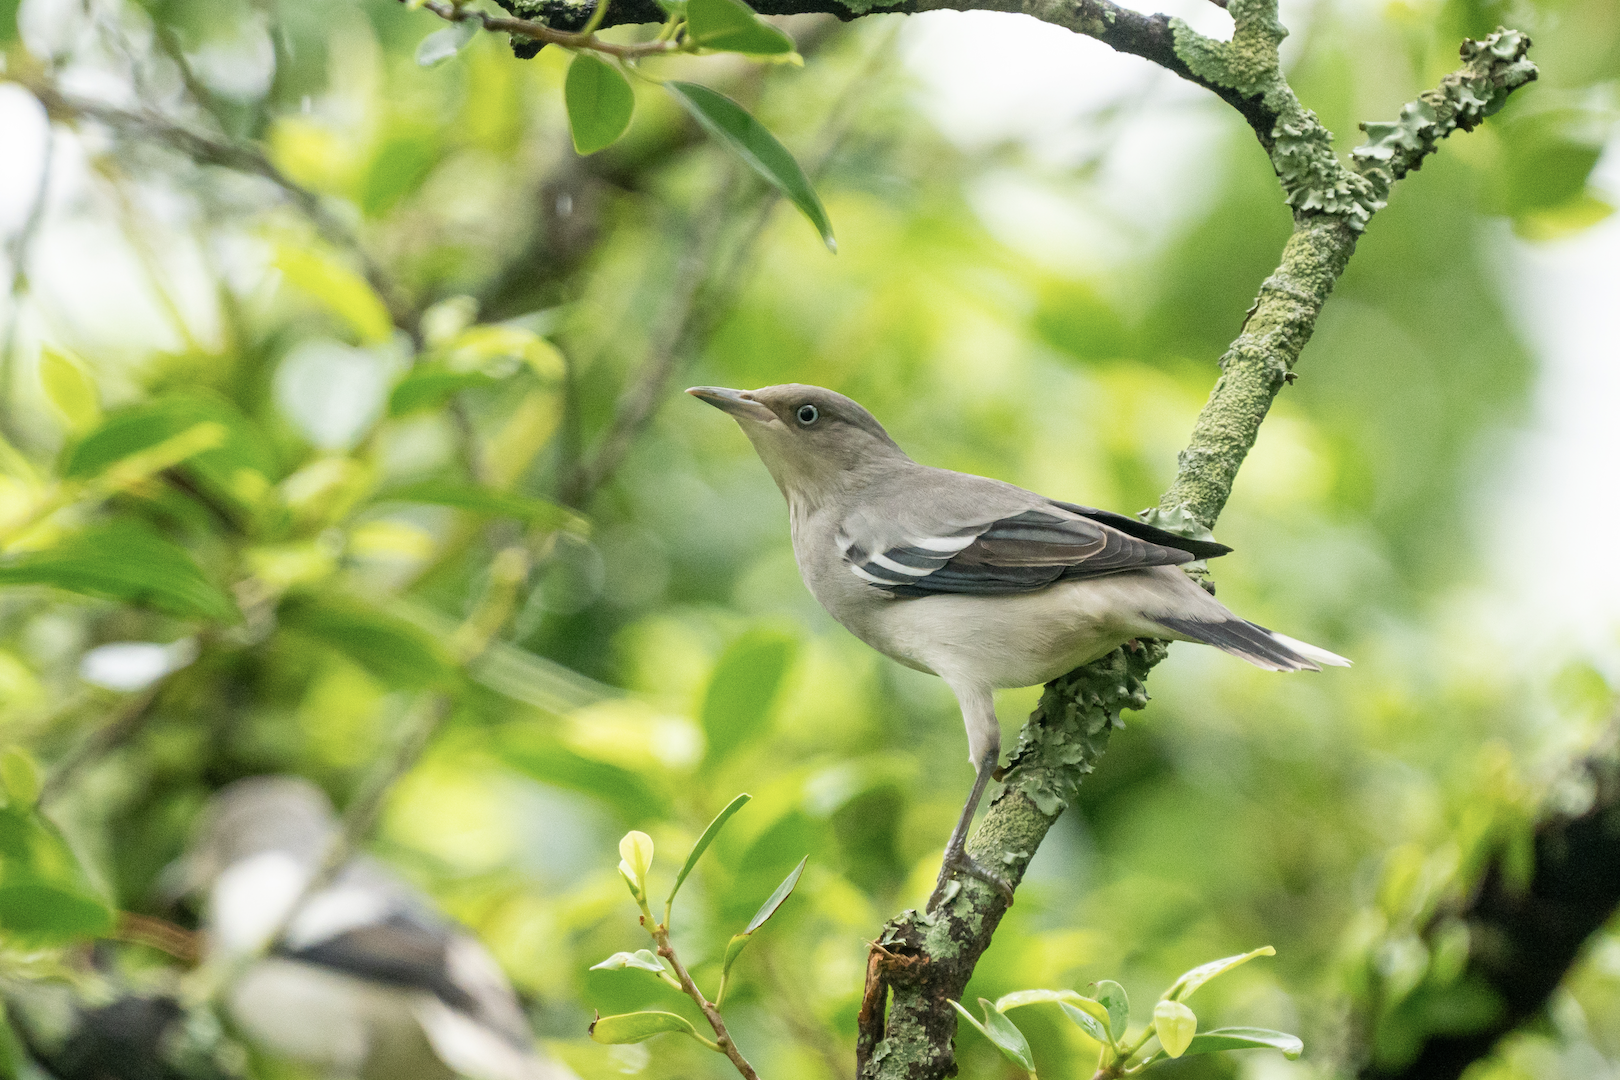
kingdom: Animalia
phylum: Chordata
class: Aves
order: Passeriformes
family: Sturnidae
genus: Sturnia
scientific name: Sturnia sinensis
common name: White-shouldered starling
